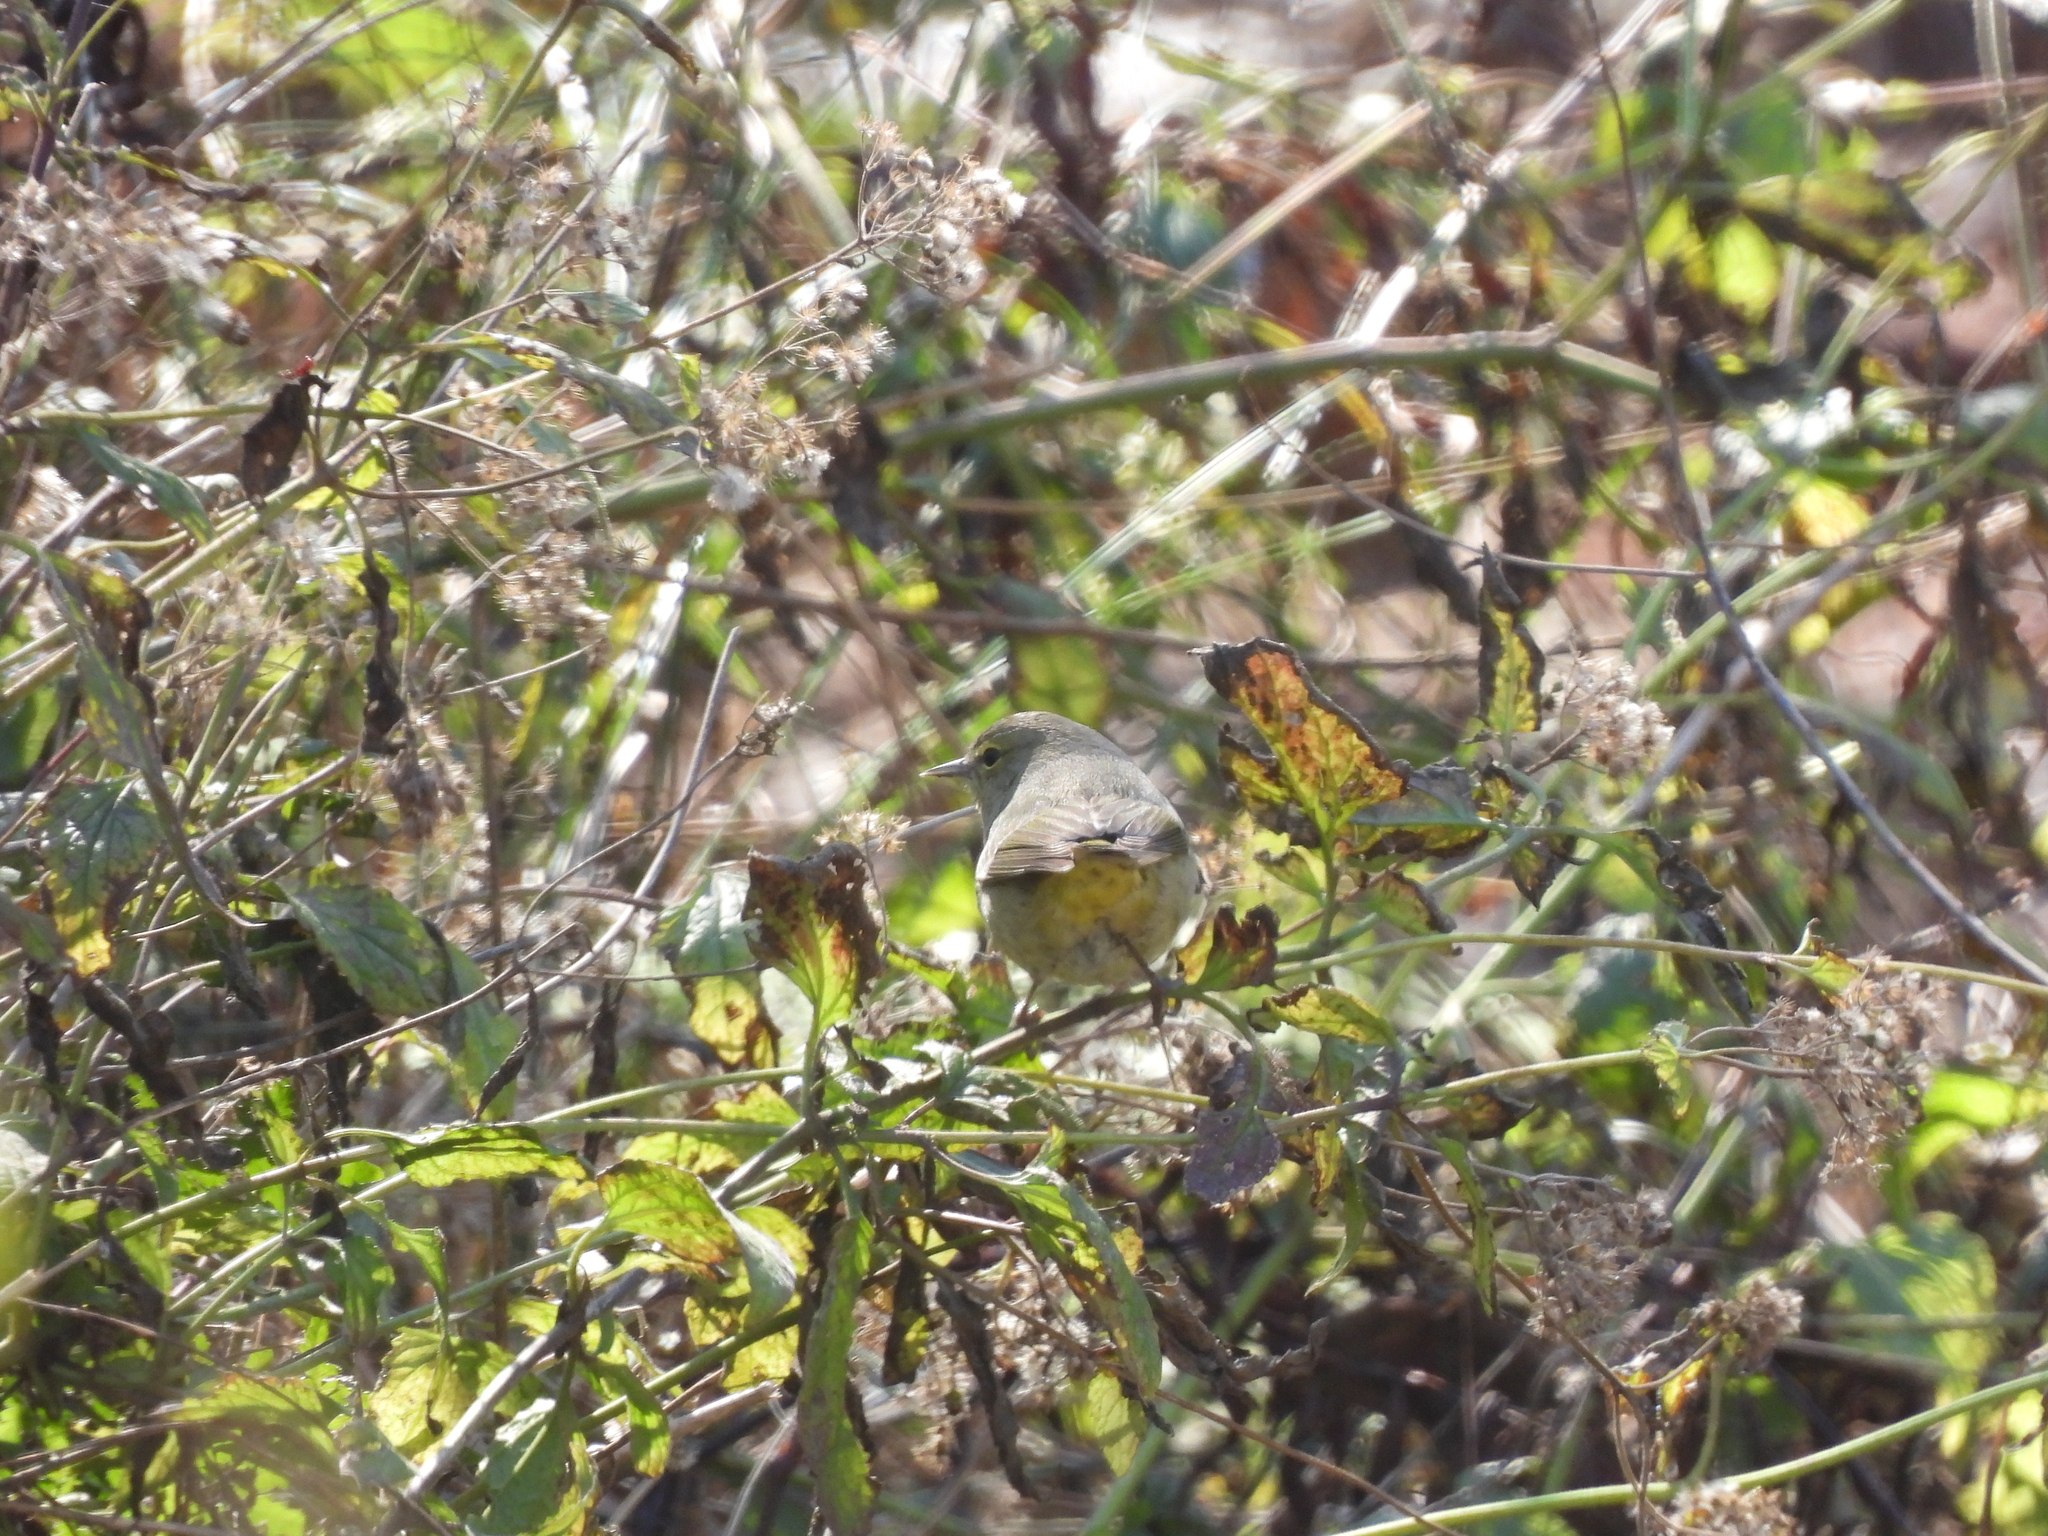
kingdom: Animalia
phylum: Chordata
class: Aves
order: Passeriformes
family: Parulidae
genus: Leiothlypis
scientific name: Leiothlypis celata
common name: Orange-crowned warbler
